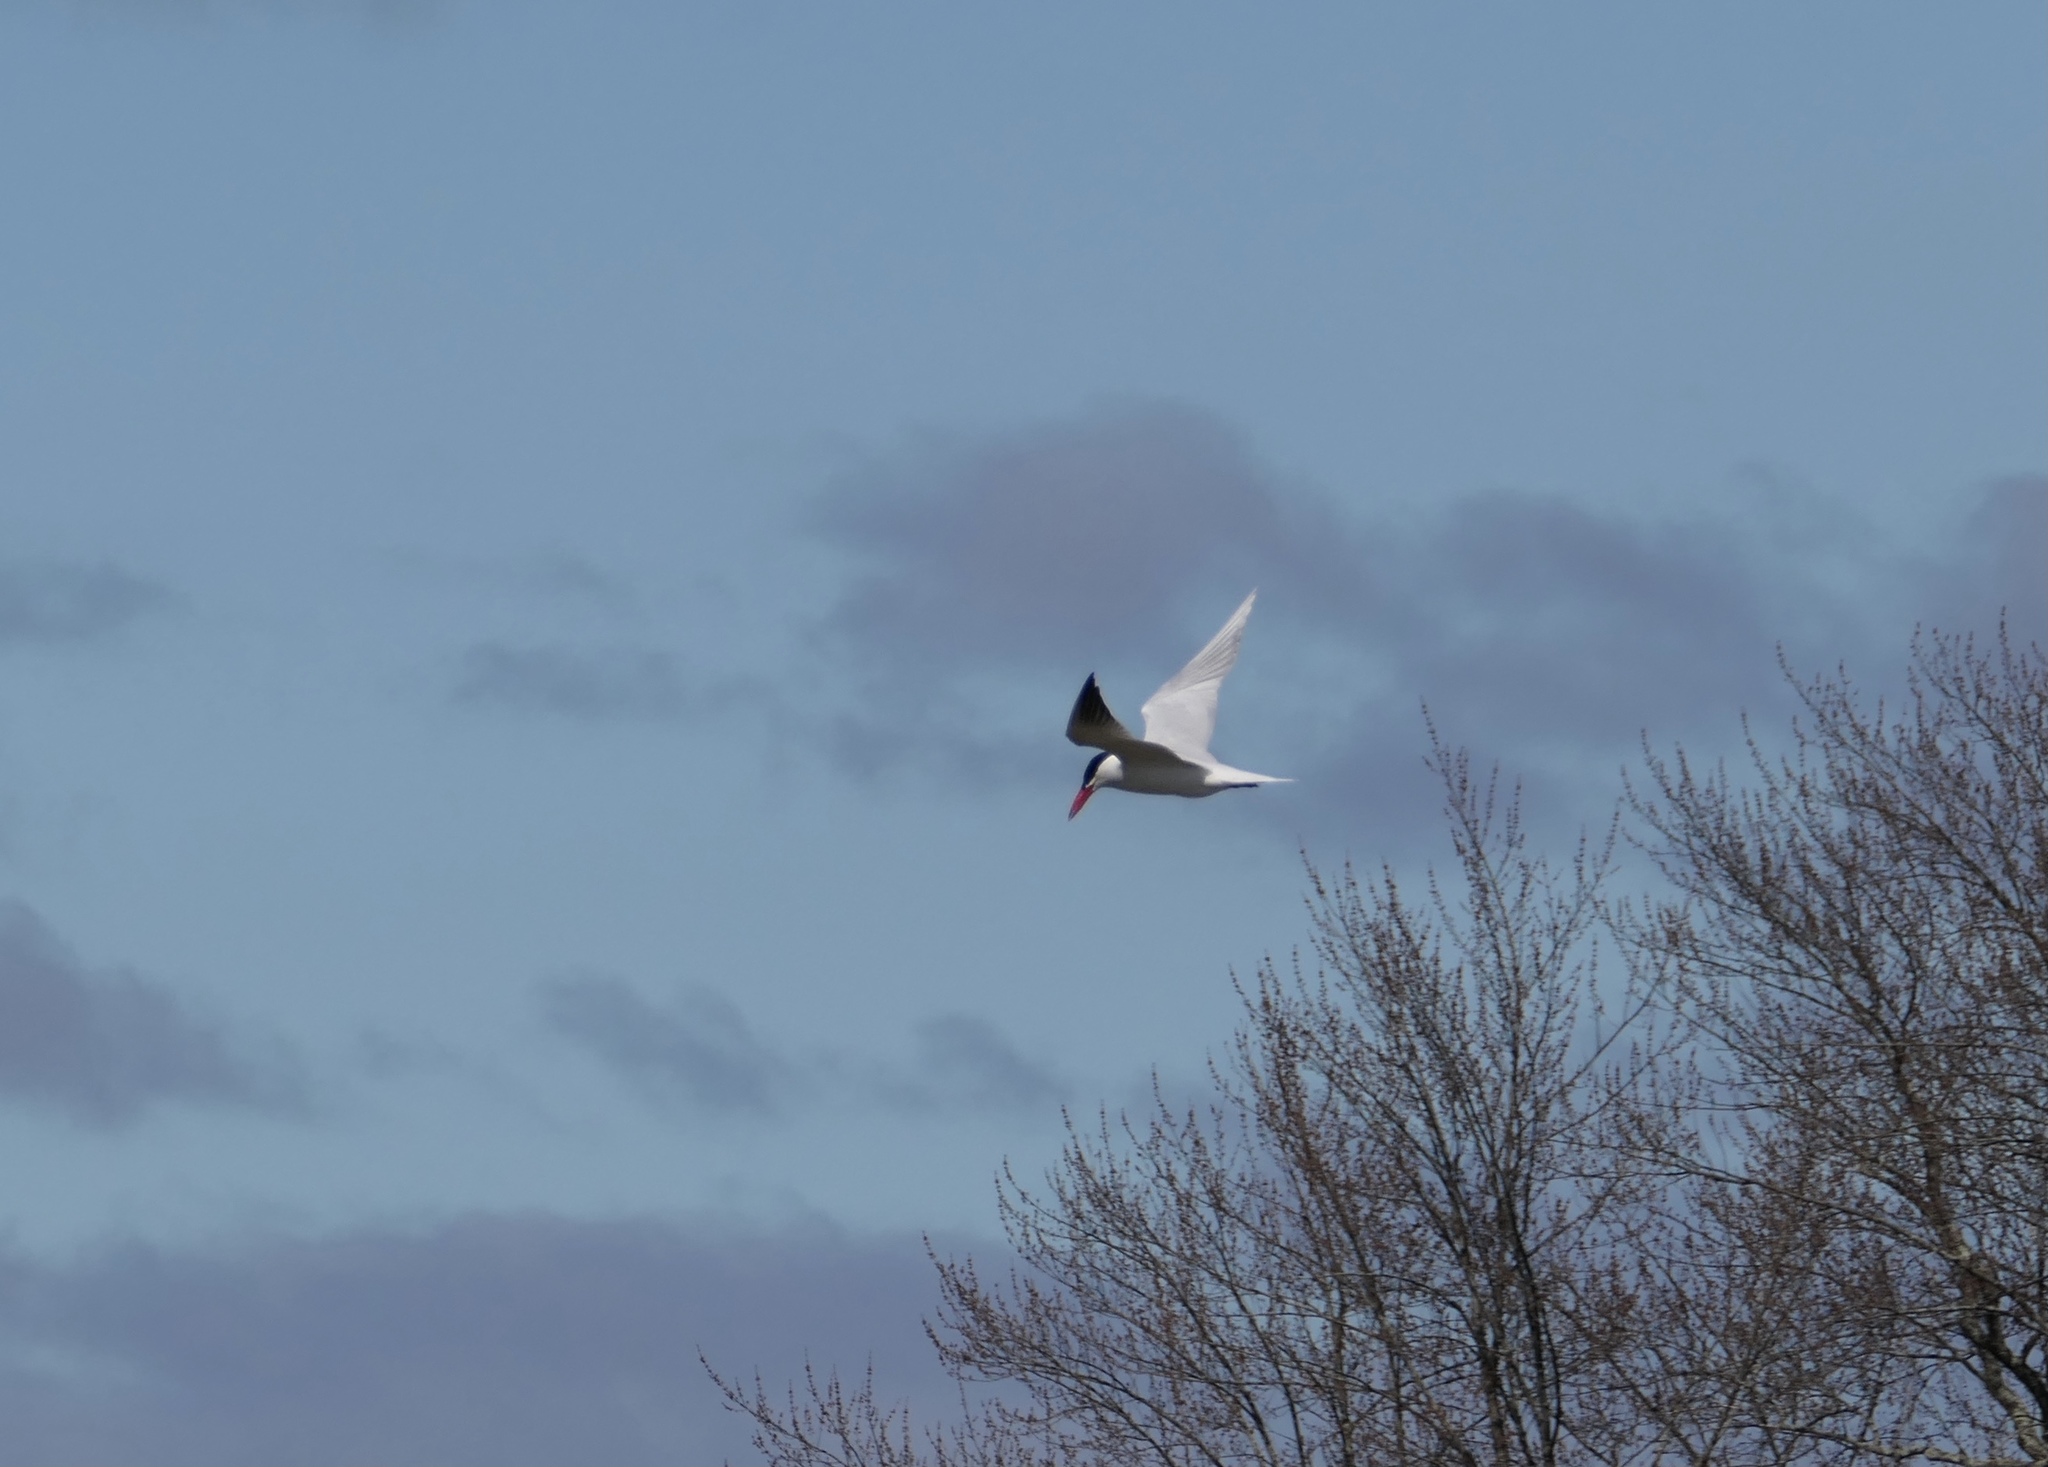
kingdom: Animalia
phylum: Chordata
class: Aves
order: Charadriiformes
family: Laridae
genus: Hydroprogne
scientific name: Hydroprogne caspia
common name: Caspian tern
